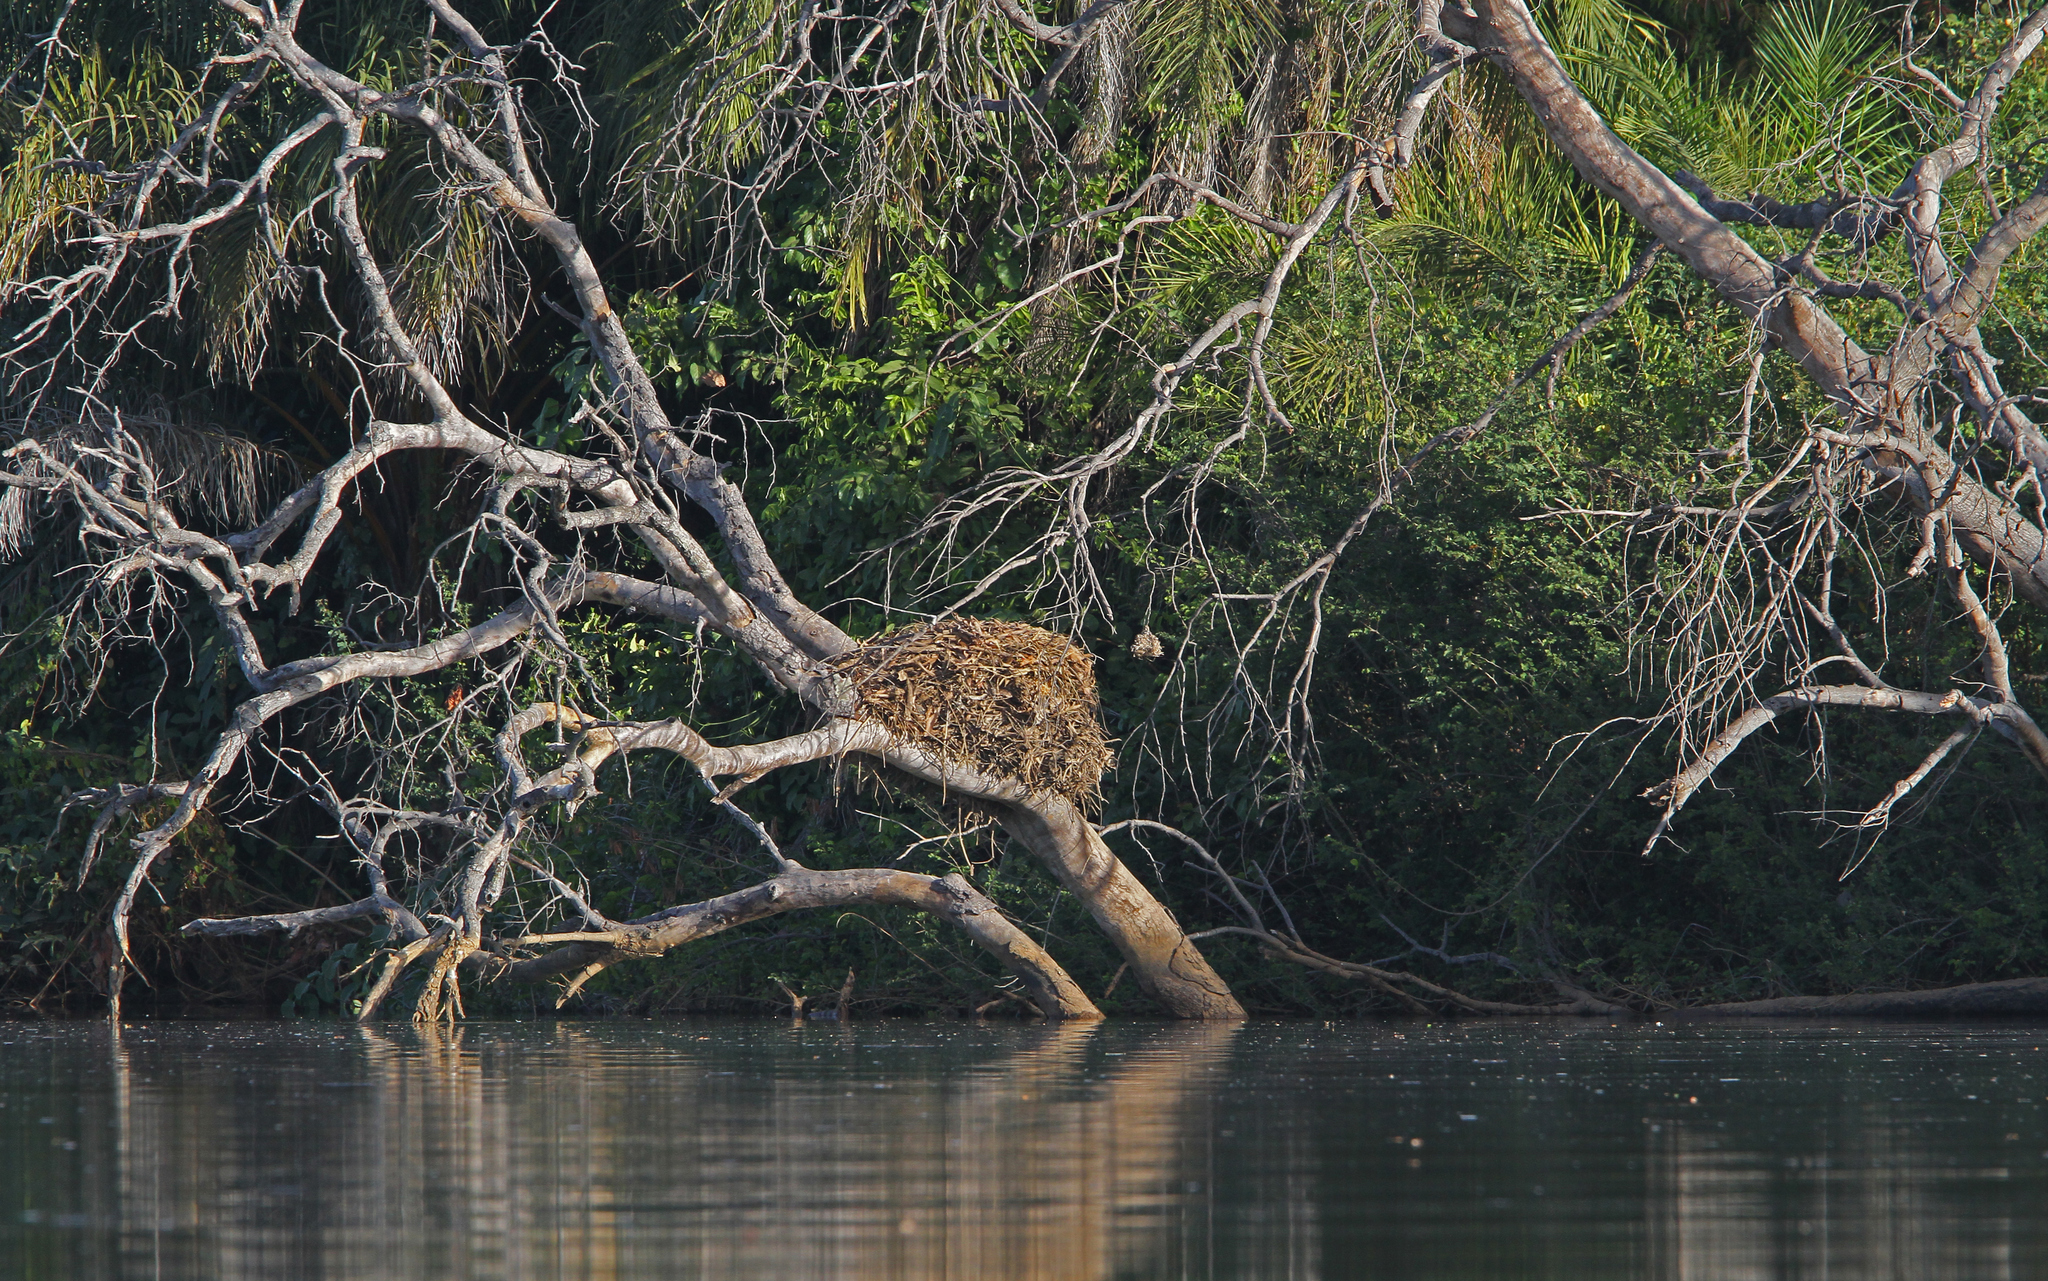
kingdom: Animalia
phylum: Chordata
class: Aves
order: Pelecaniformes
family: Scopidae
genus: Scopus
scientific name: Scopus umbretta
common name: Hamerkop
